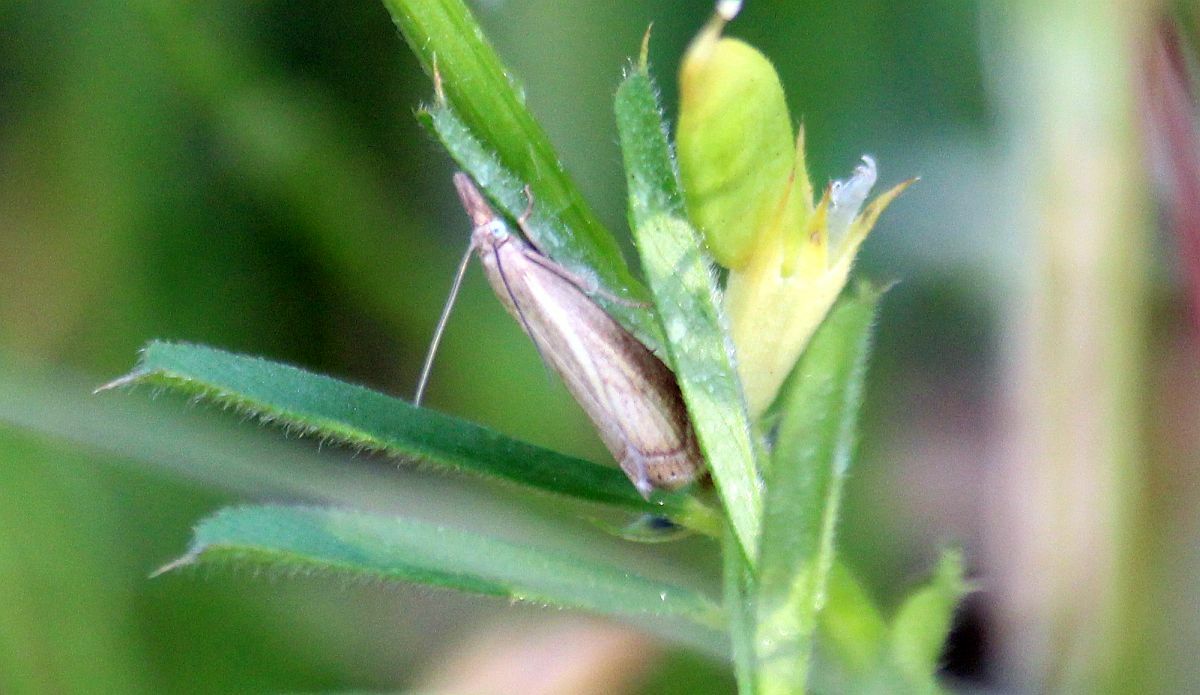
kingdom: Animalia
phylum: Arthropoda
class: Insecta
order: Lepidoptera
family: Crambidae
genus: Chrysoteuchia
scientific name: Chrysoteuchia culmella
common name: Garden grass-veneer
